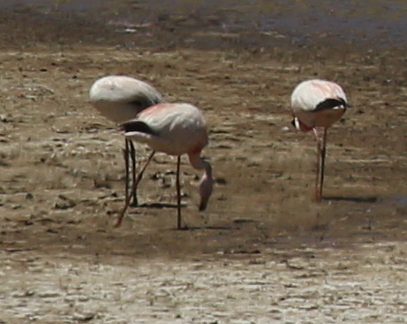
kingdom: Animalia
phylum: Chordata
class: Aves
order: Phoenicopteriformes
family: Phoenicopteridae
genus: Phoenicoparrus
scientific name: Phoenicoparrus jamesi
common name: James's flamingo
